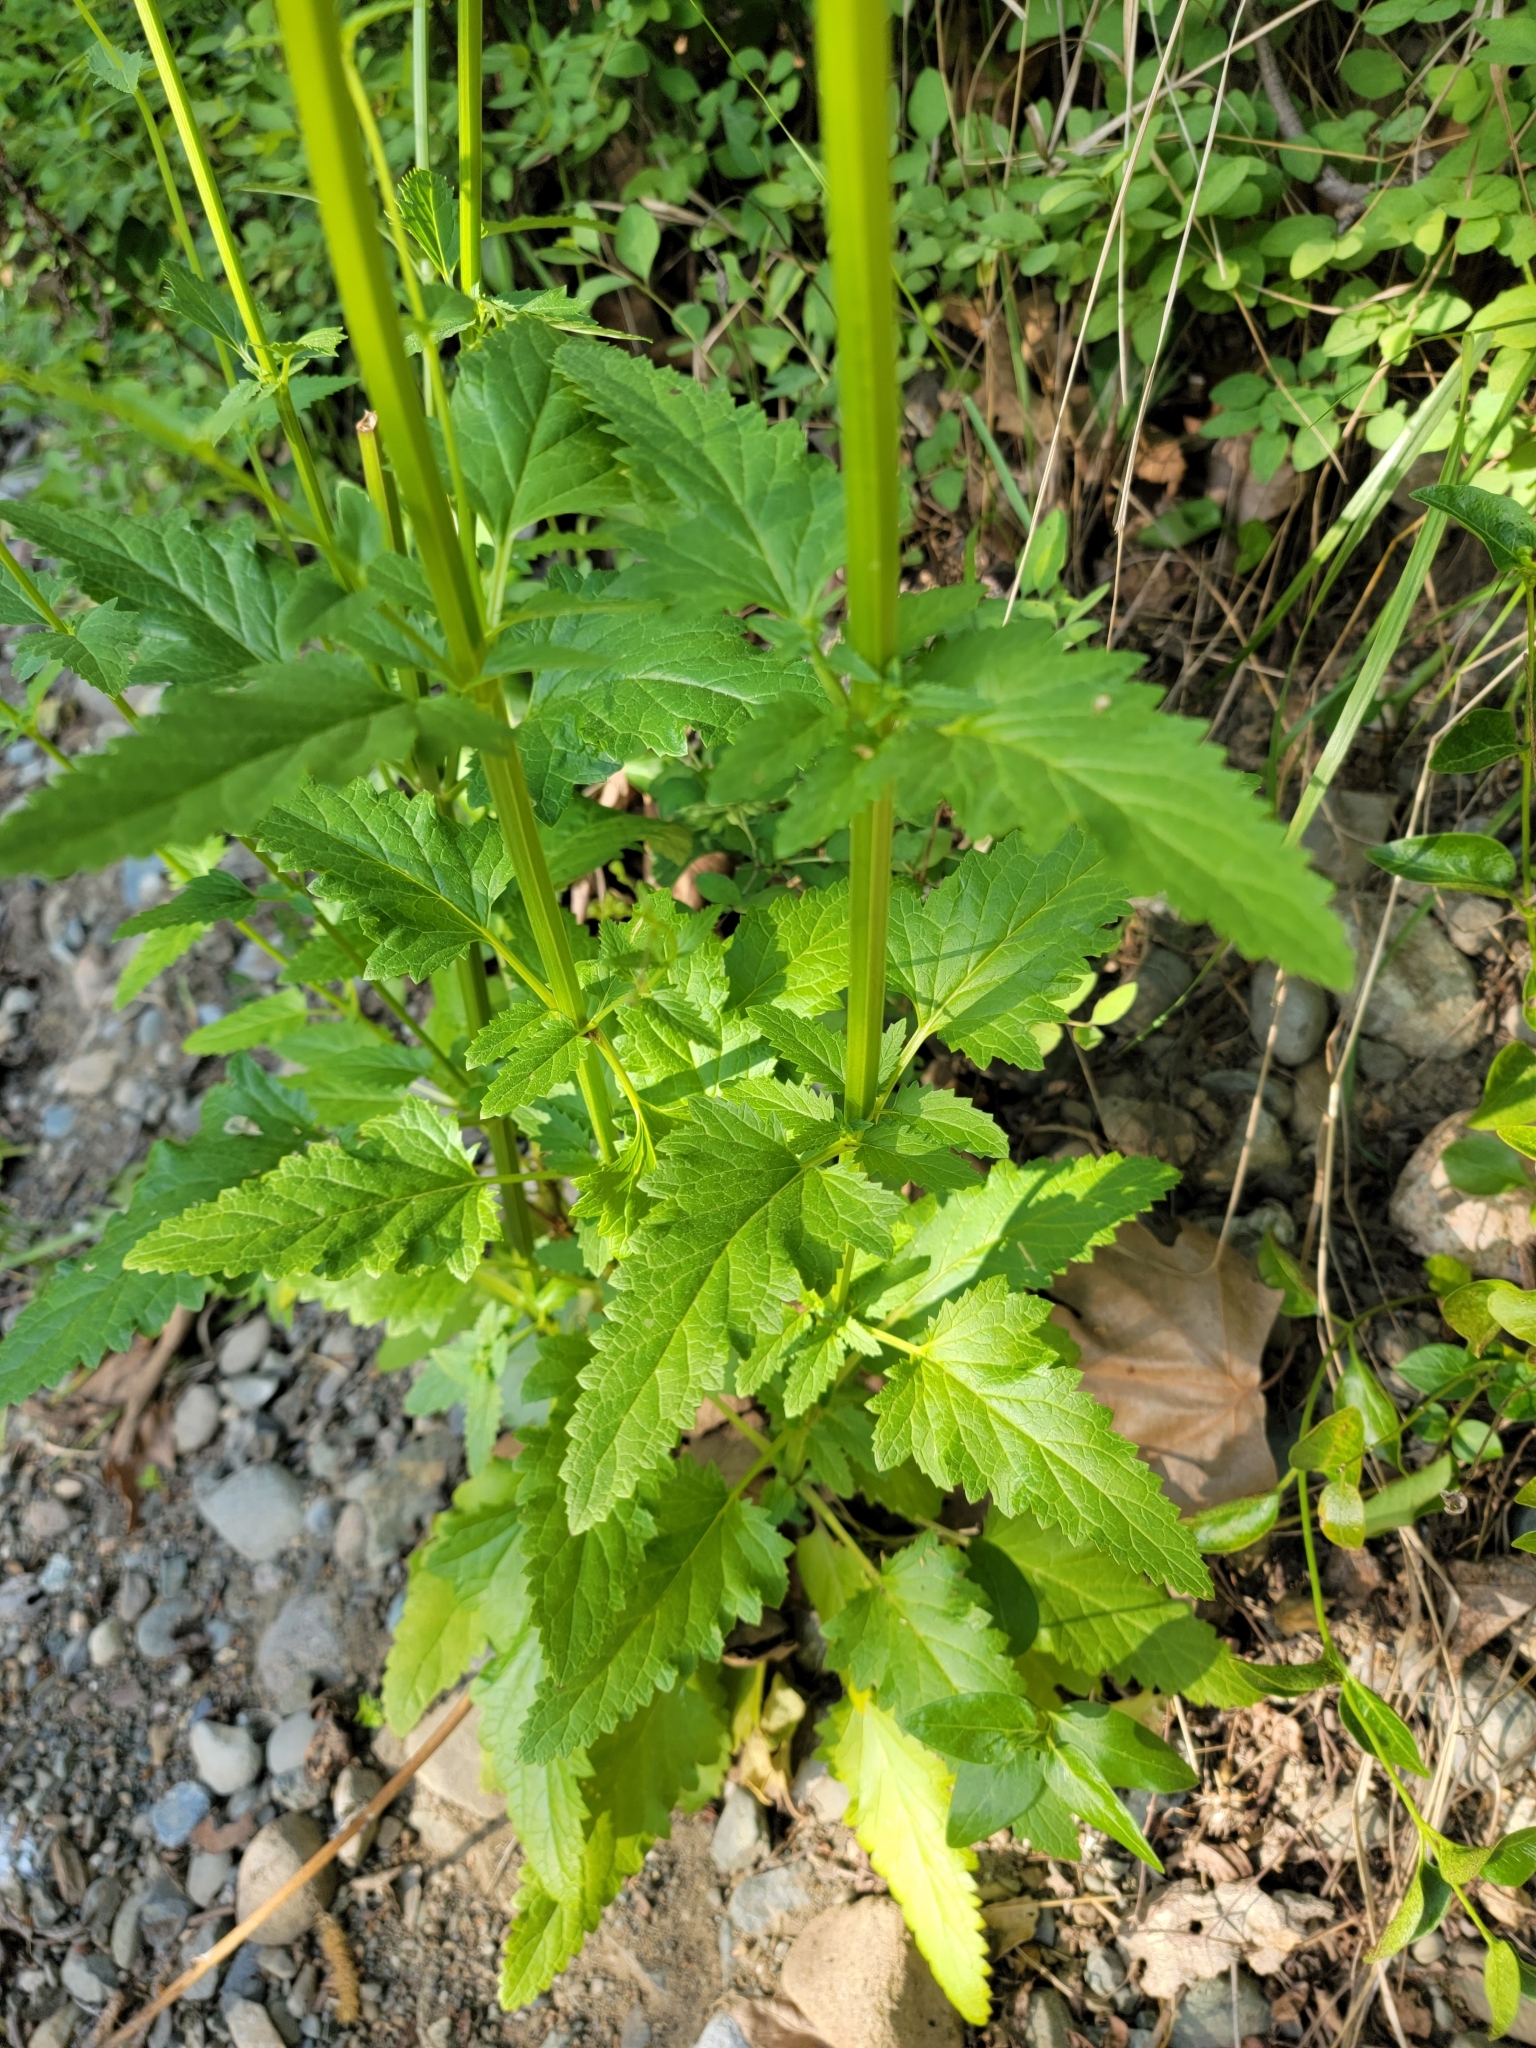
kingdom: Plantae
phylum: Tracheophyta
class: Magnoliopsida
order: Lamiales
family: Scrophulariaceae
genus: Scrophularia
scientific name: Scrophularia californica
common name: California figwort
